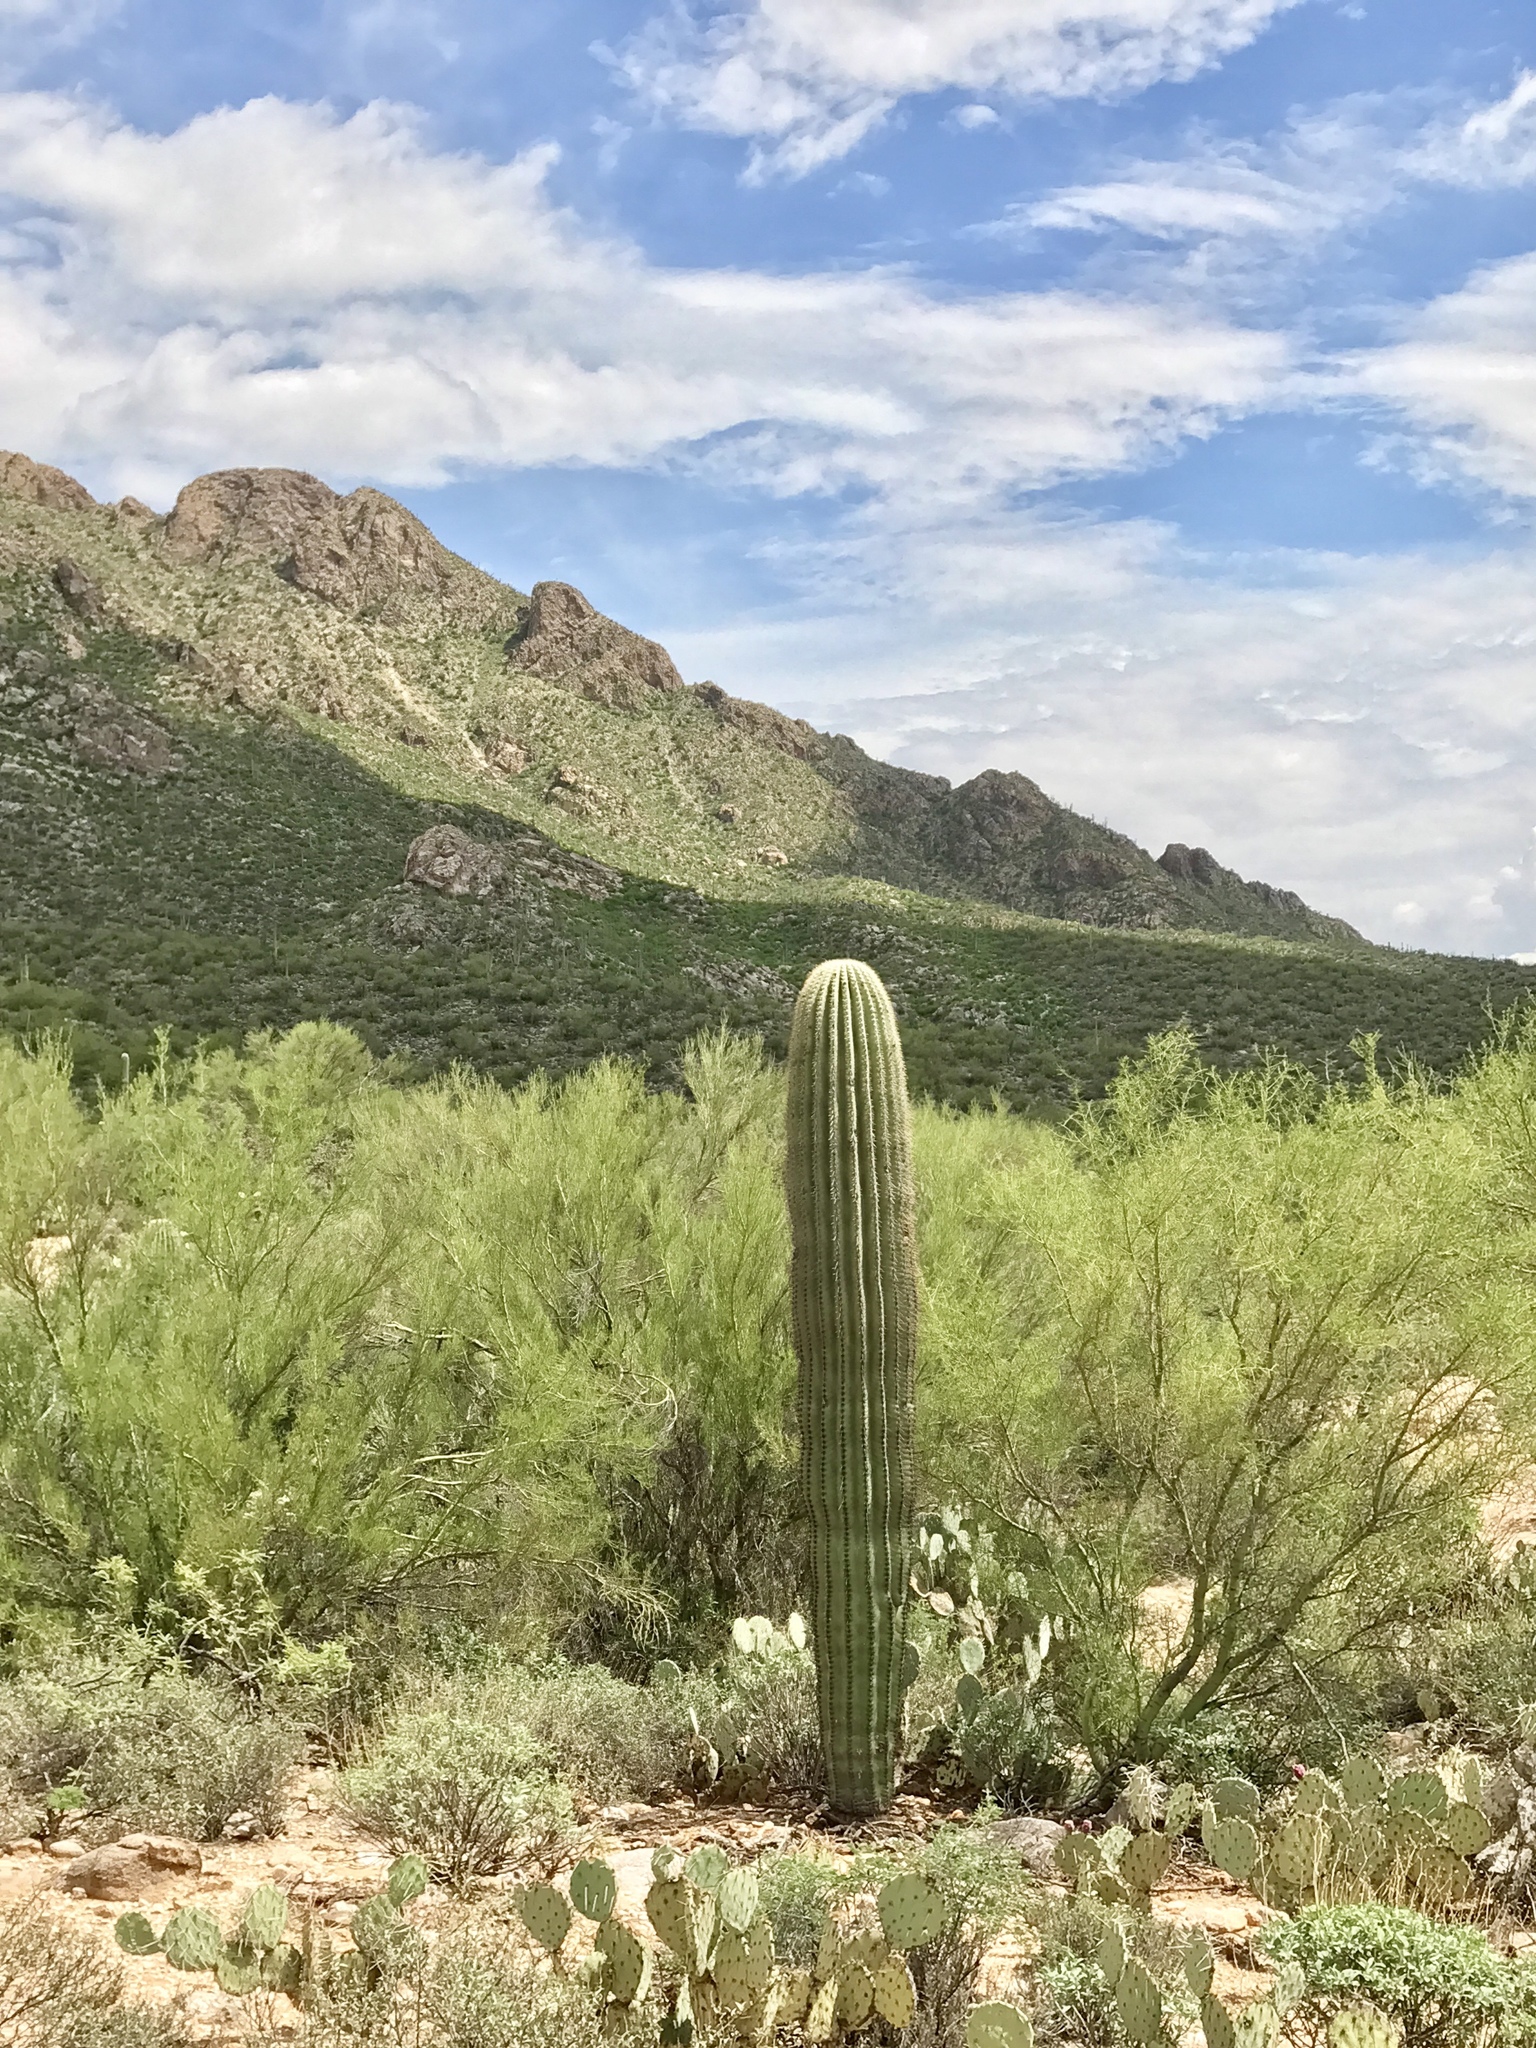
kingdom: Plantae
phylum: Tracheophyta
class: Magnoliopsida
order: Caryophyllales
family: Cactaceae
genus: Carnegiea
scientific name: Carnegiea gigantea
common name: Saguaro
